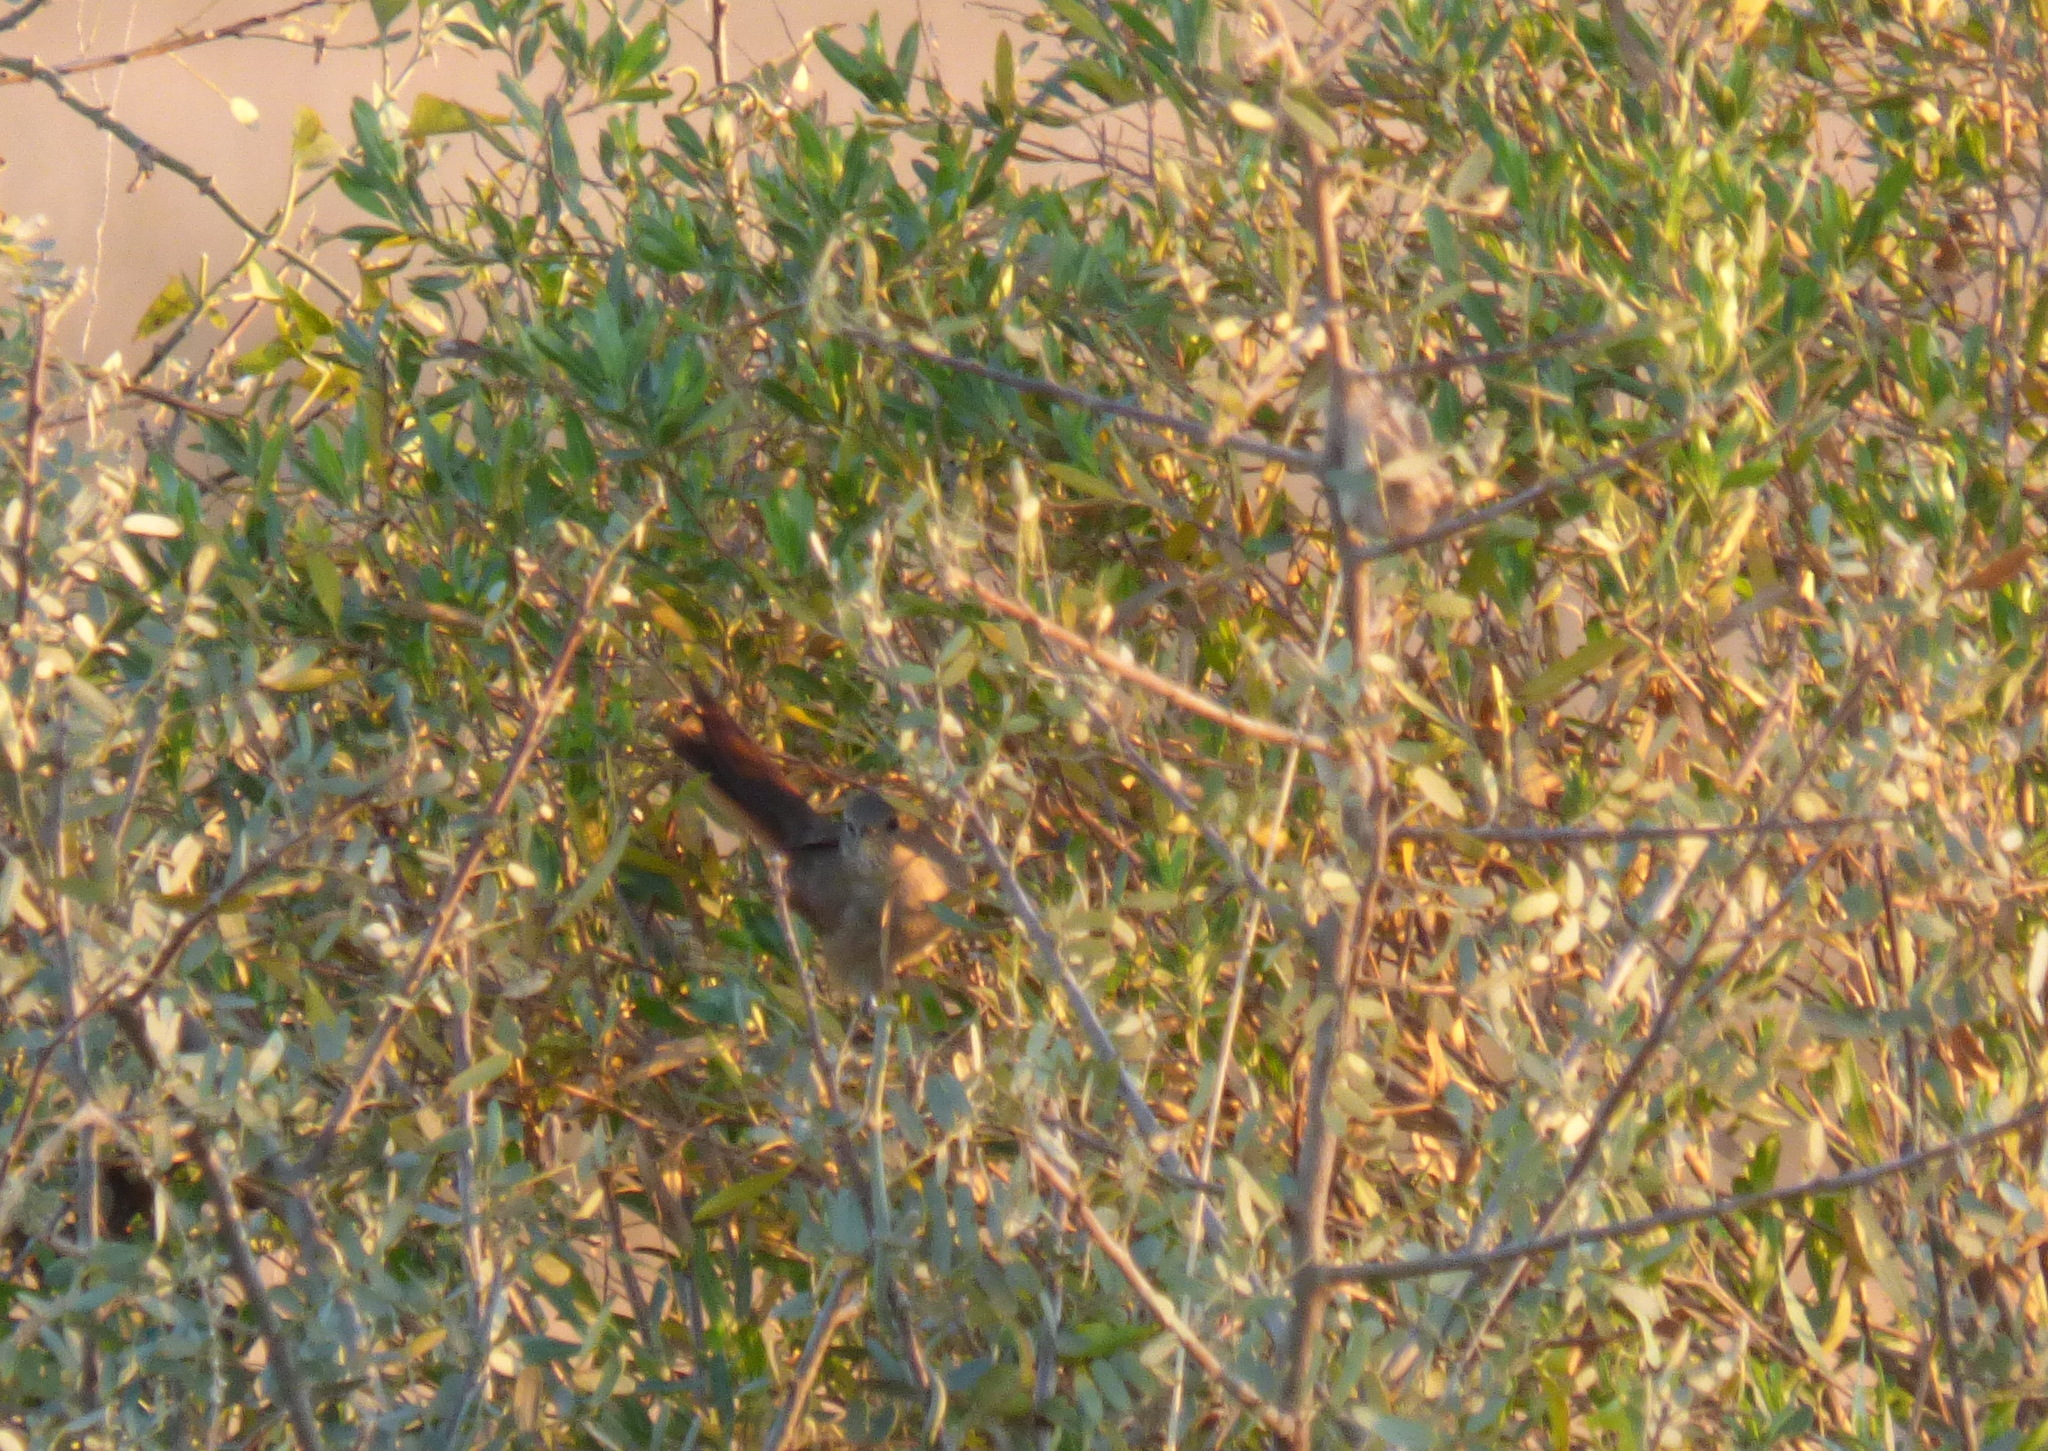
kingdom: Animalia
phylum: Chordata
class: Aves
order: Passeriformes
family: Furnariidae
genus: Asthenes
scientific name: Asthenes pyrrholeuca
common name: Sharp-billed canastero
